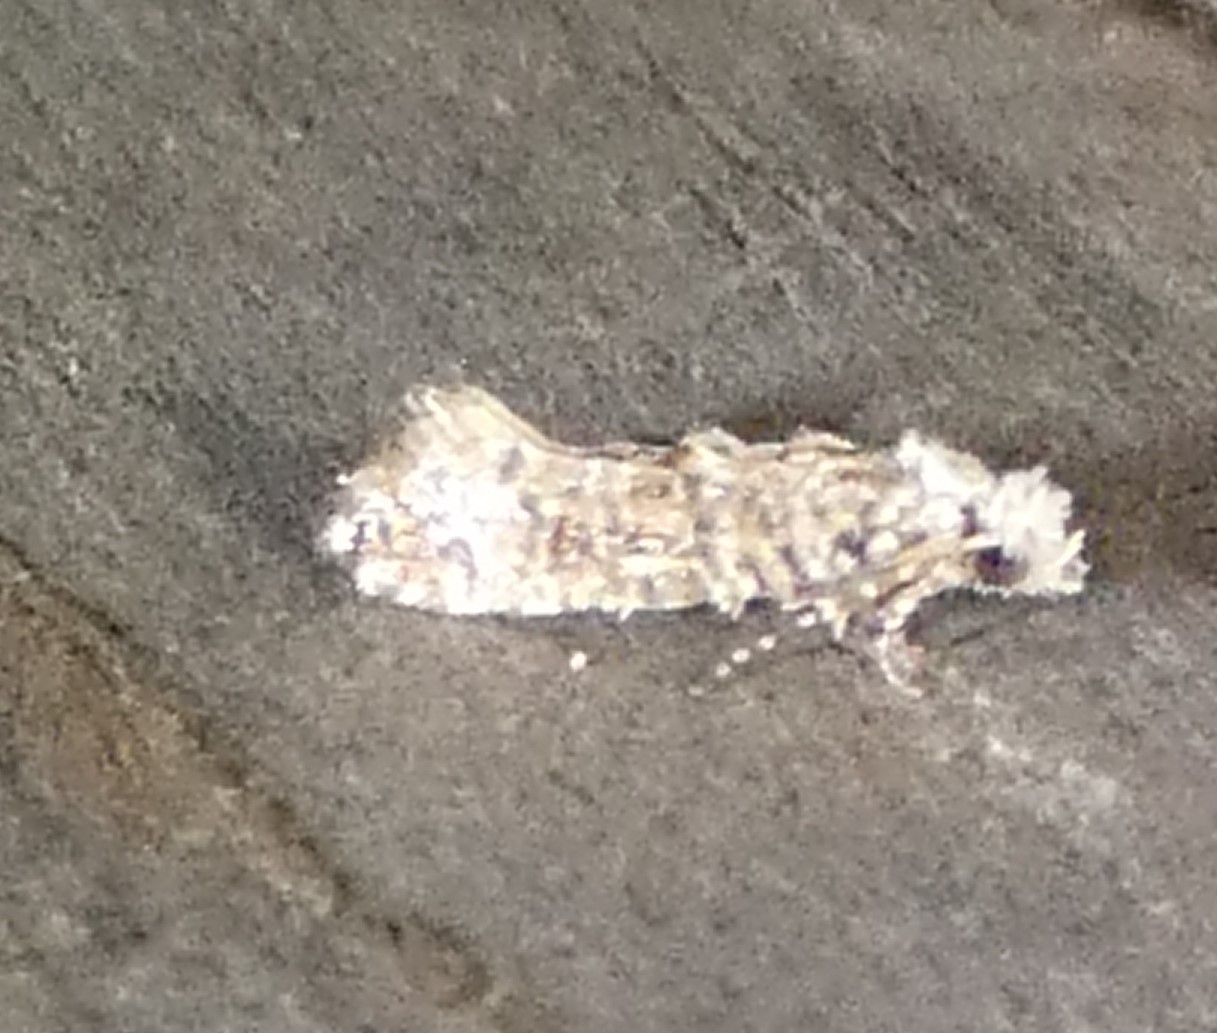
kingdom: Animalia
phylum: Arthropoda
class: Insecta
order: Lepidoptera
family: Tineidae
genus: Xylesthia
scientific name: Xylesthia pruniramiella
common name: Clemens' bark moth
